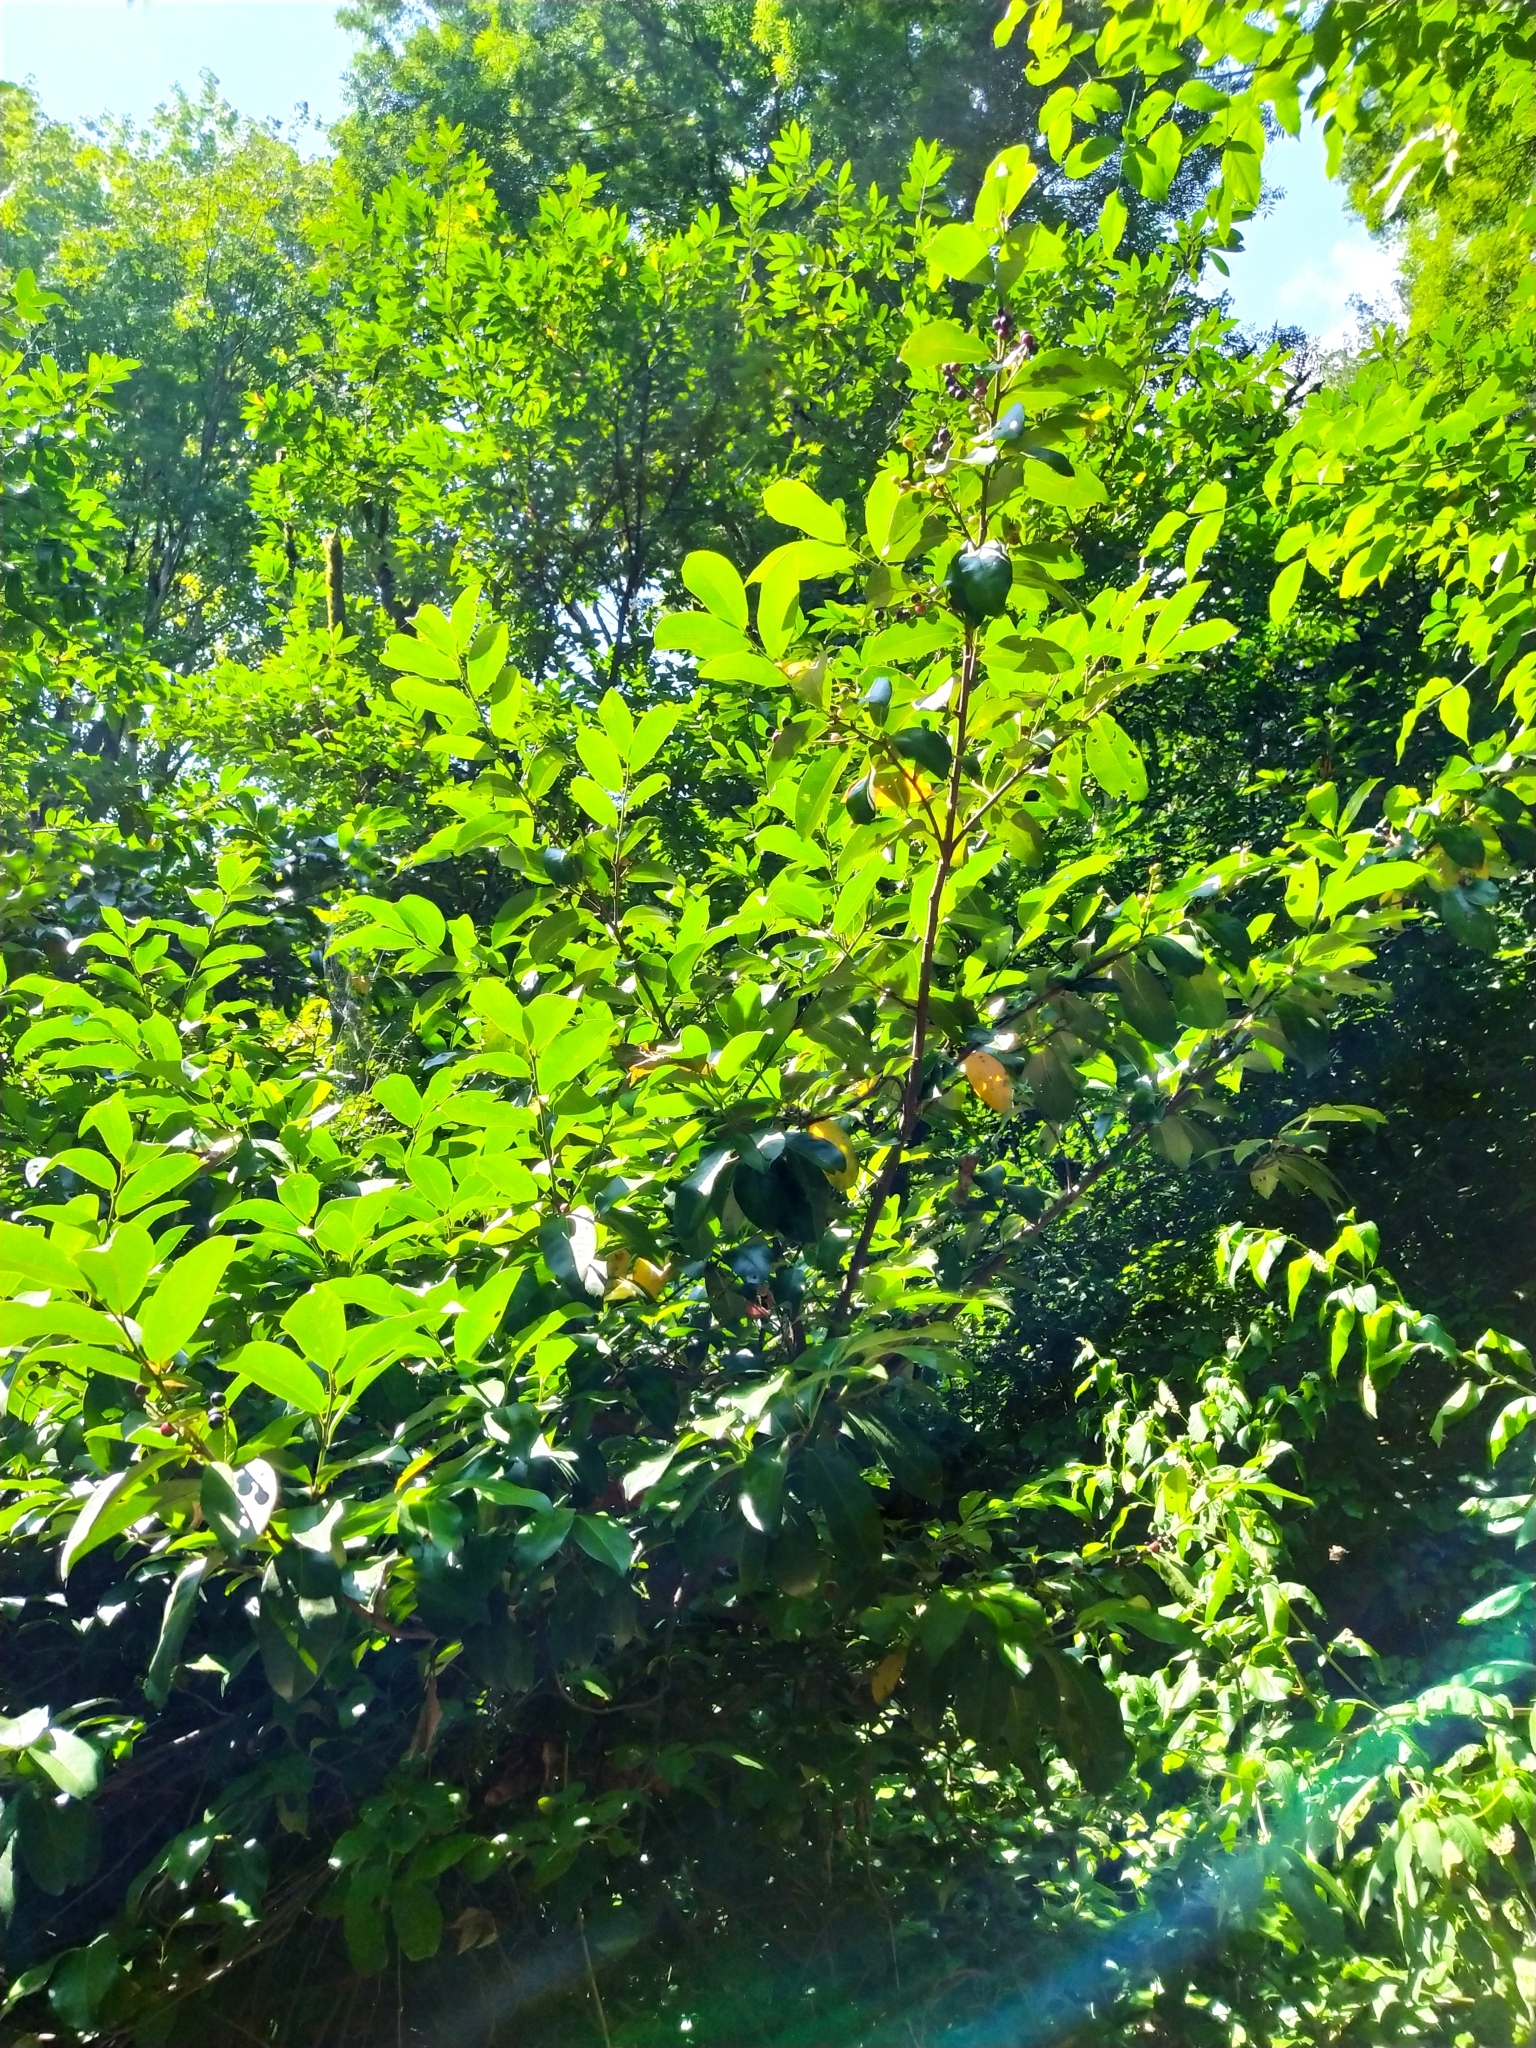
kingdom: Plantae
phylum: Tracheophyta
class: Magnoliopsida
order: Rosales
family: Rosaceae
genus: Prunus
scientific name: Prunus laurocerasus
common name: Cherry laurel
